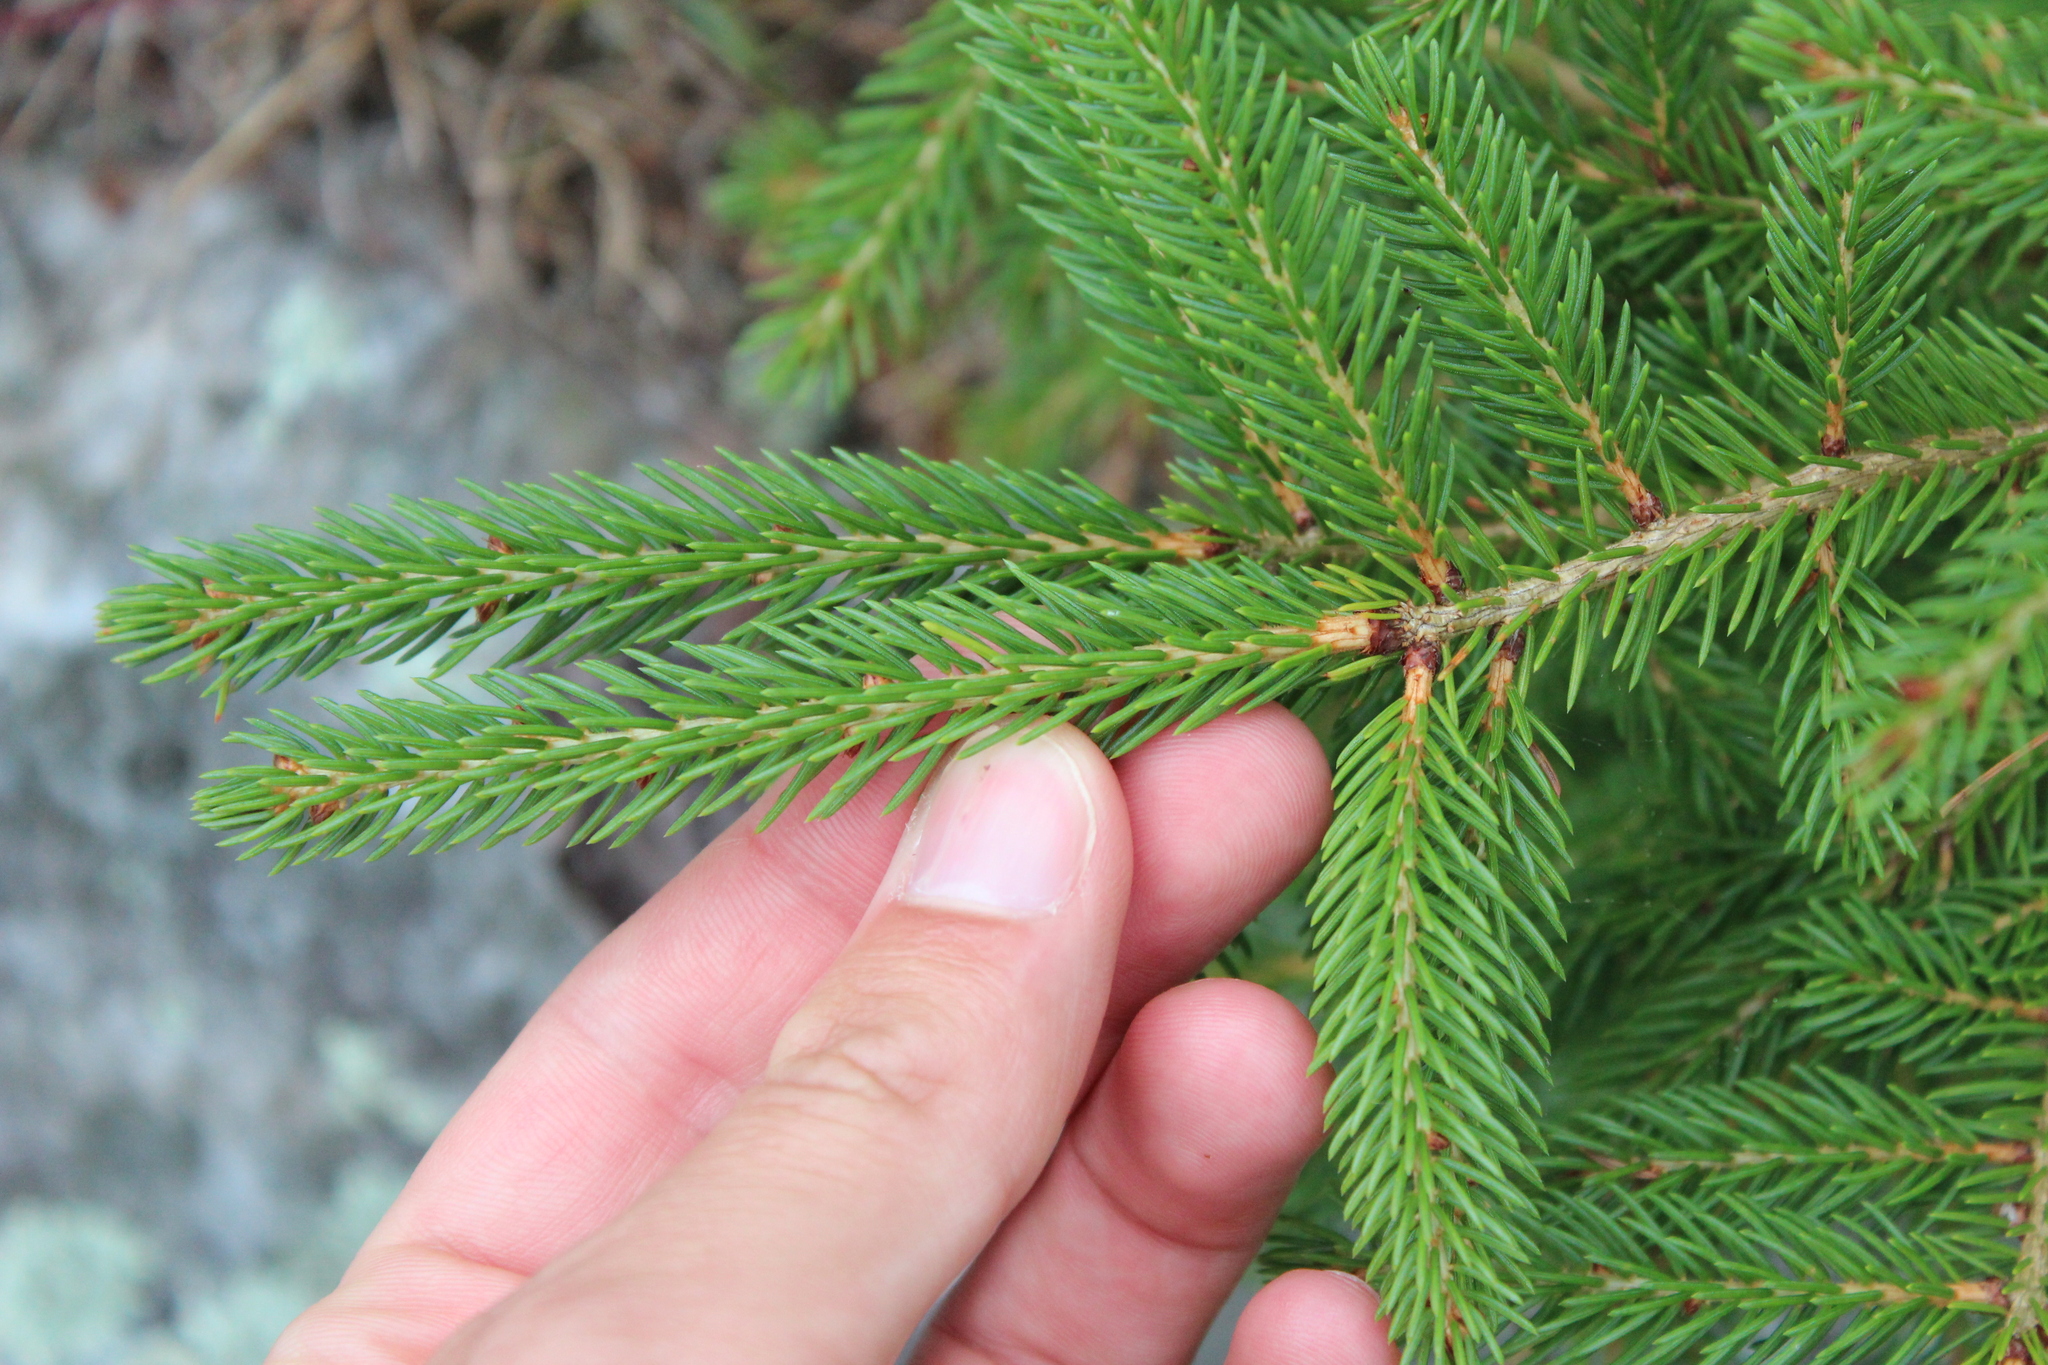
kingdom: Plantae
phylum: Tracheophyta
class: Pinopsida
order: Pinales
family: Pinaceae
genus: Picea
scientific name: Picea rubens
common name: Red spruce
